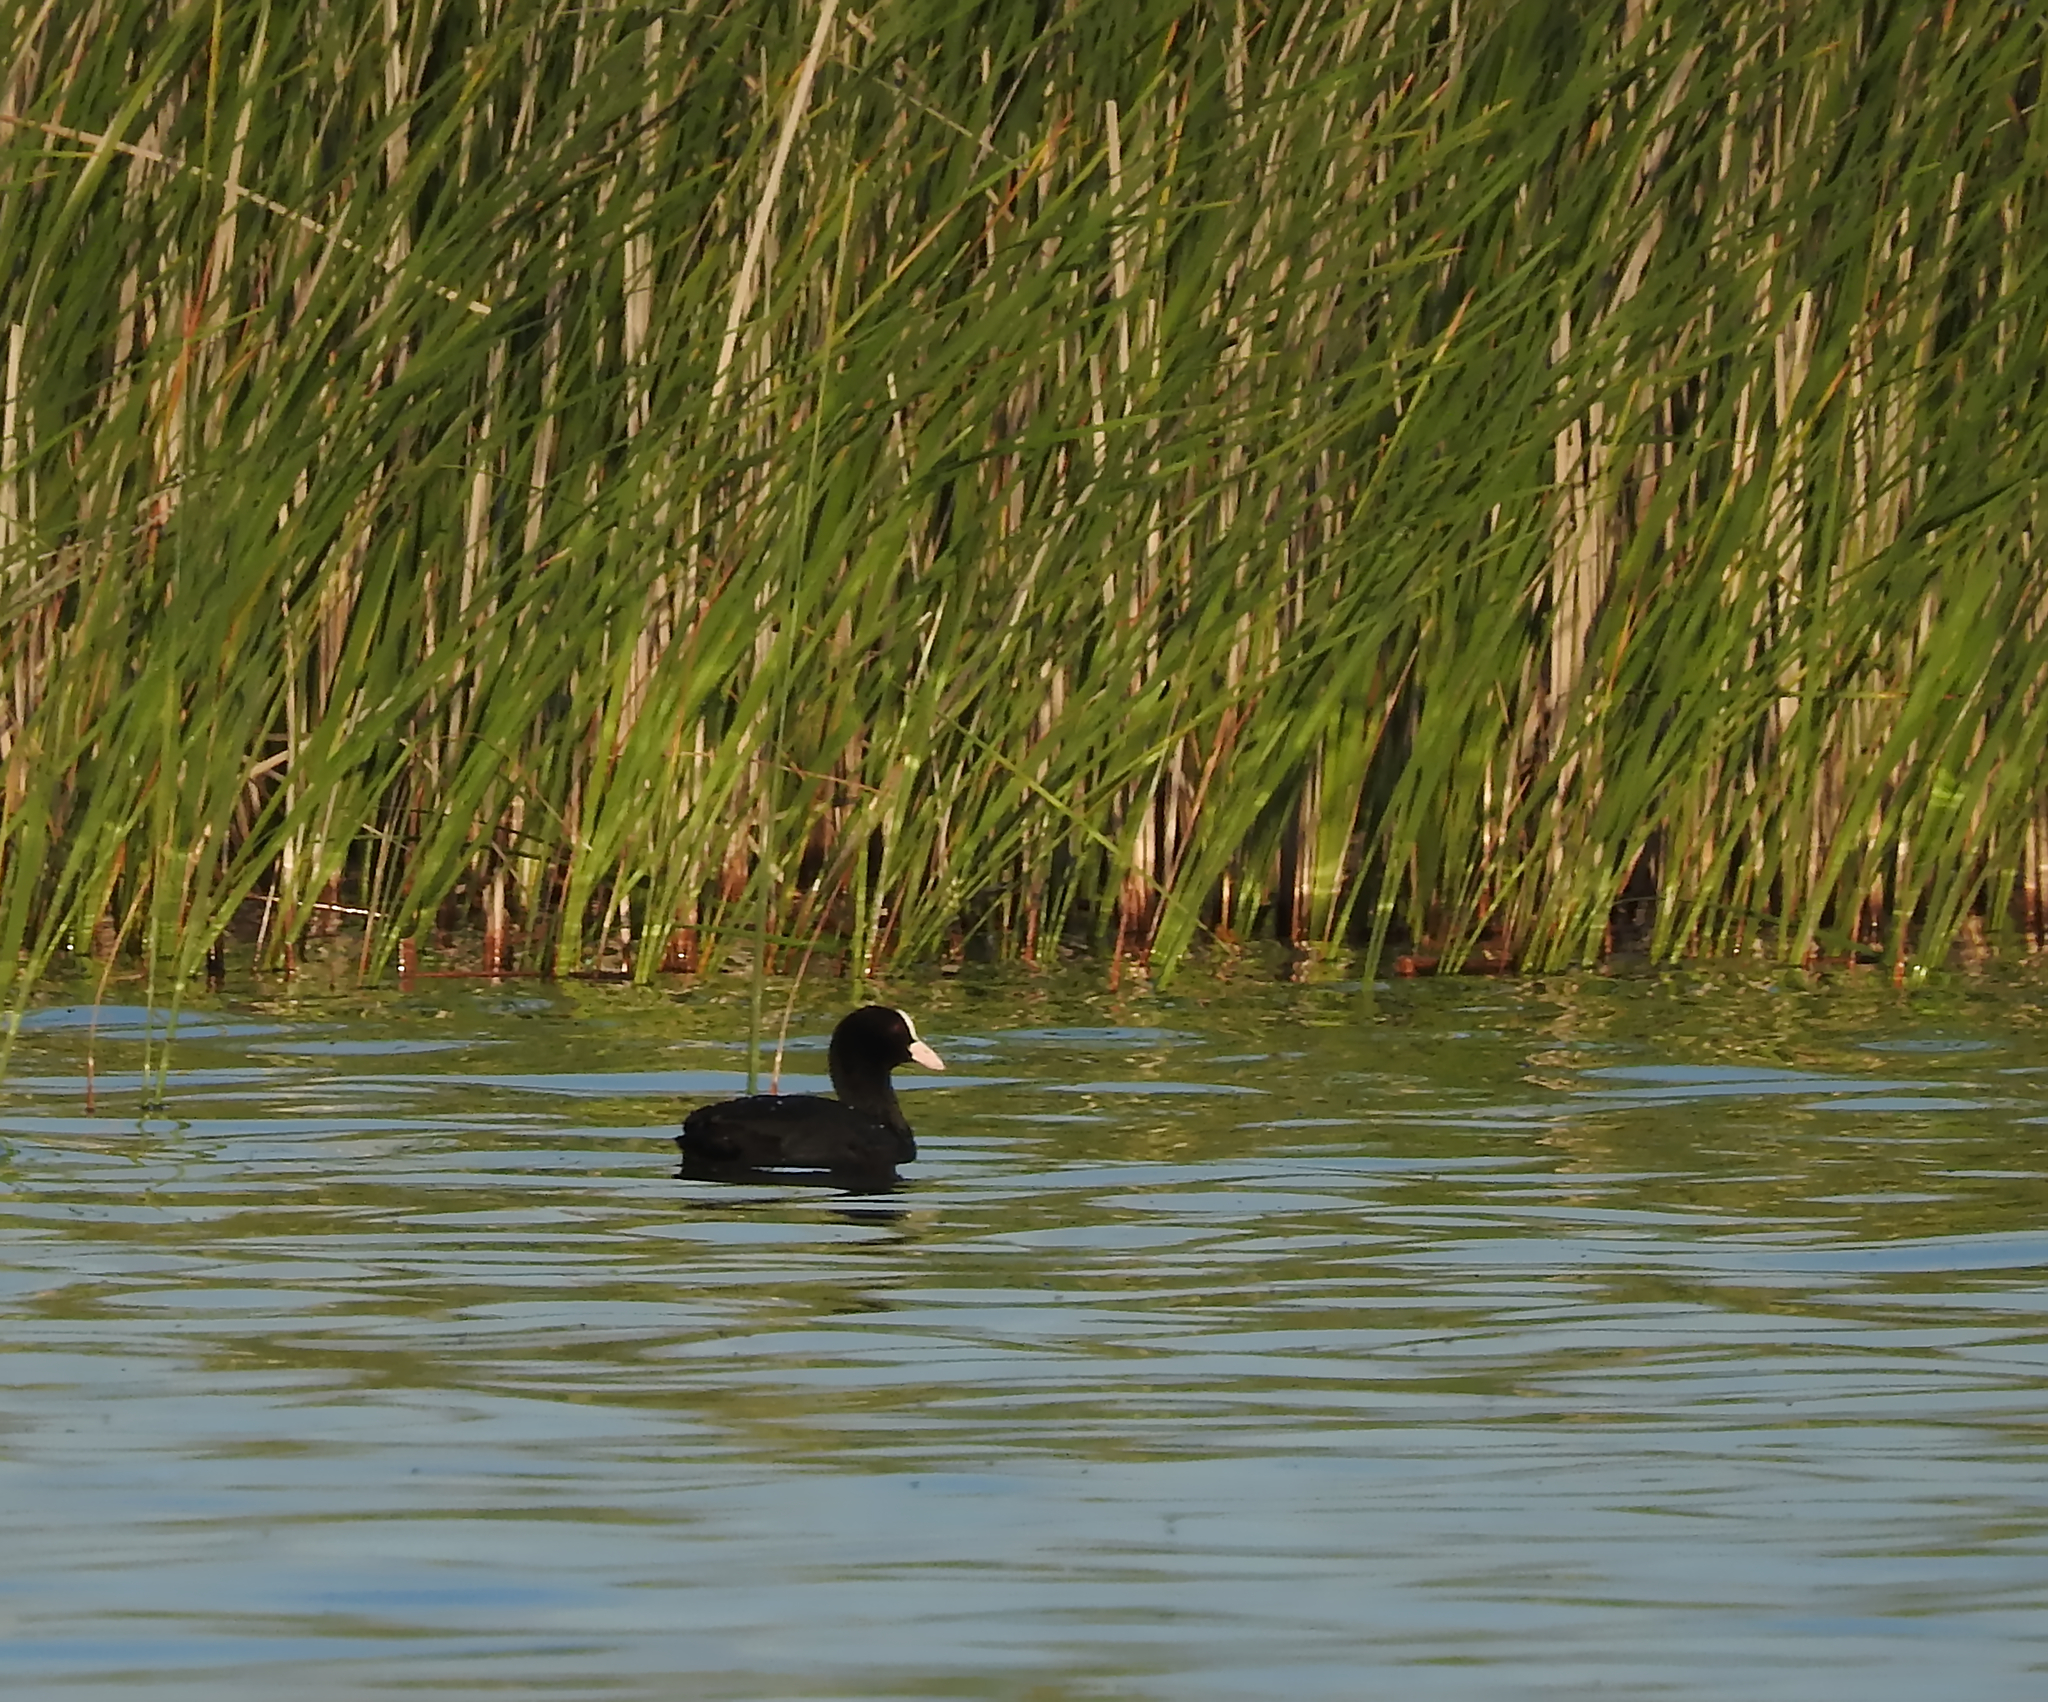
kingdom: Animalia
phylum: Chordata
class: Aves
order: Gruiformes
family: Rallidae
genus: Fulica
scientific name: Fulica atra
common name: Eurasian coot
